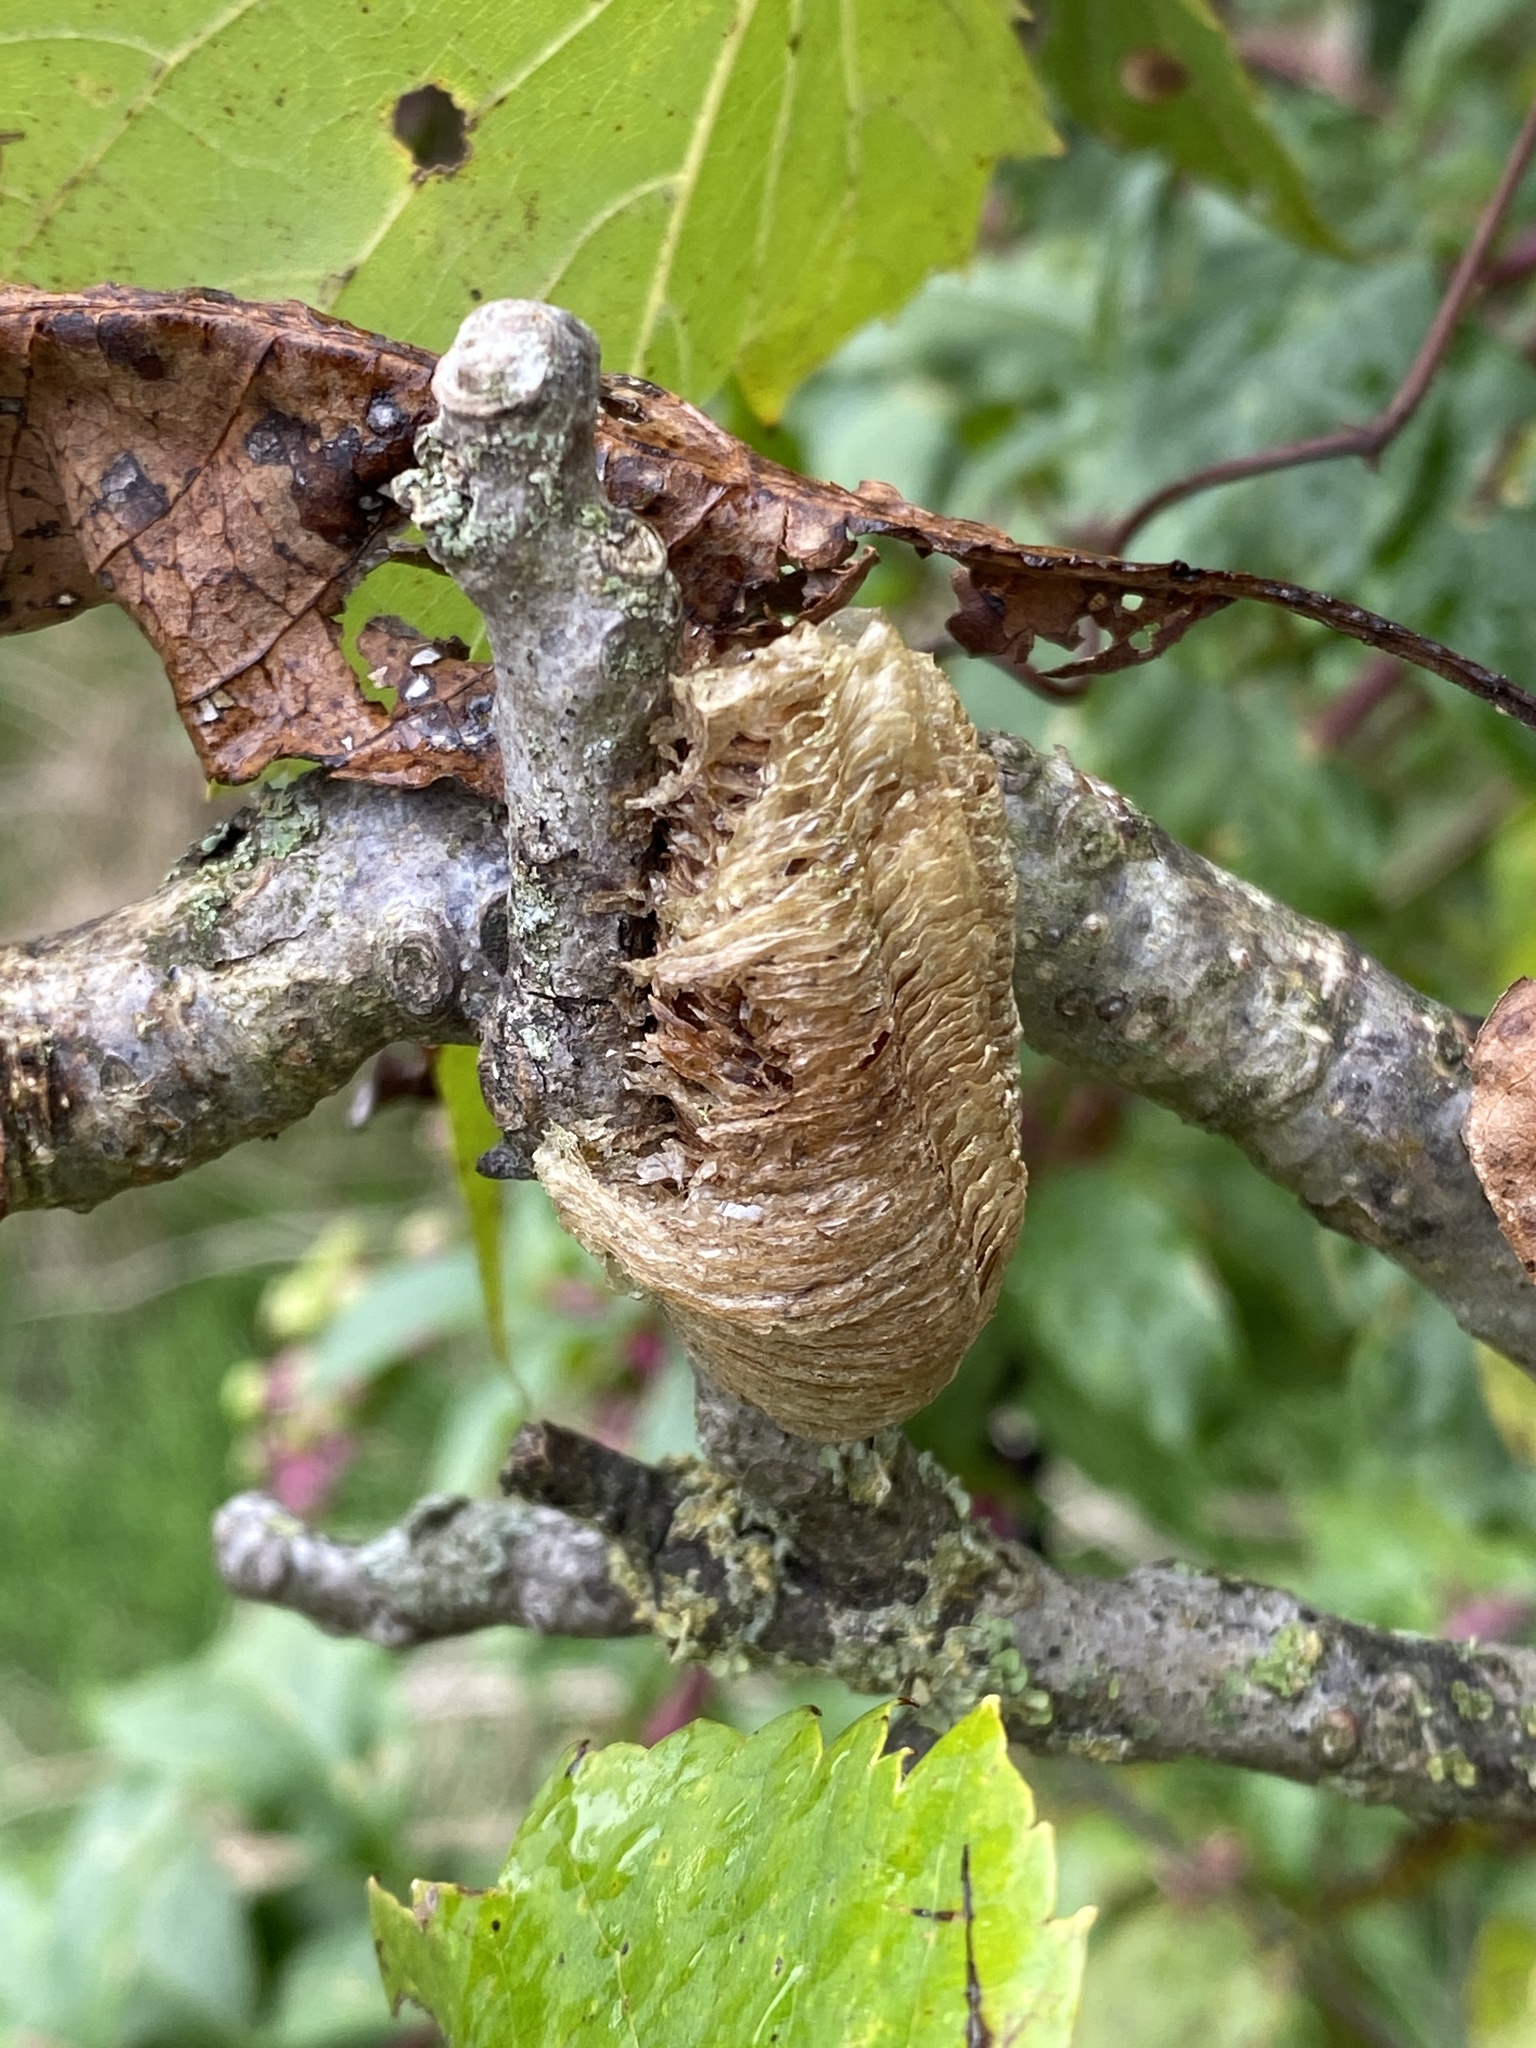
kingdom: Animalia
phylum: Arthropoda
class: Insecta
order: Mantodea
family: Mantidae
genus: Mantis
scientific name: Mantis religiosa
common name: Praying mantis
